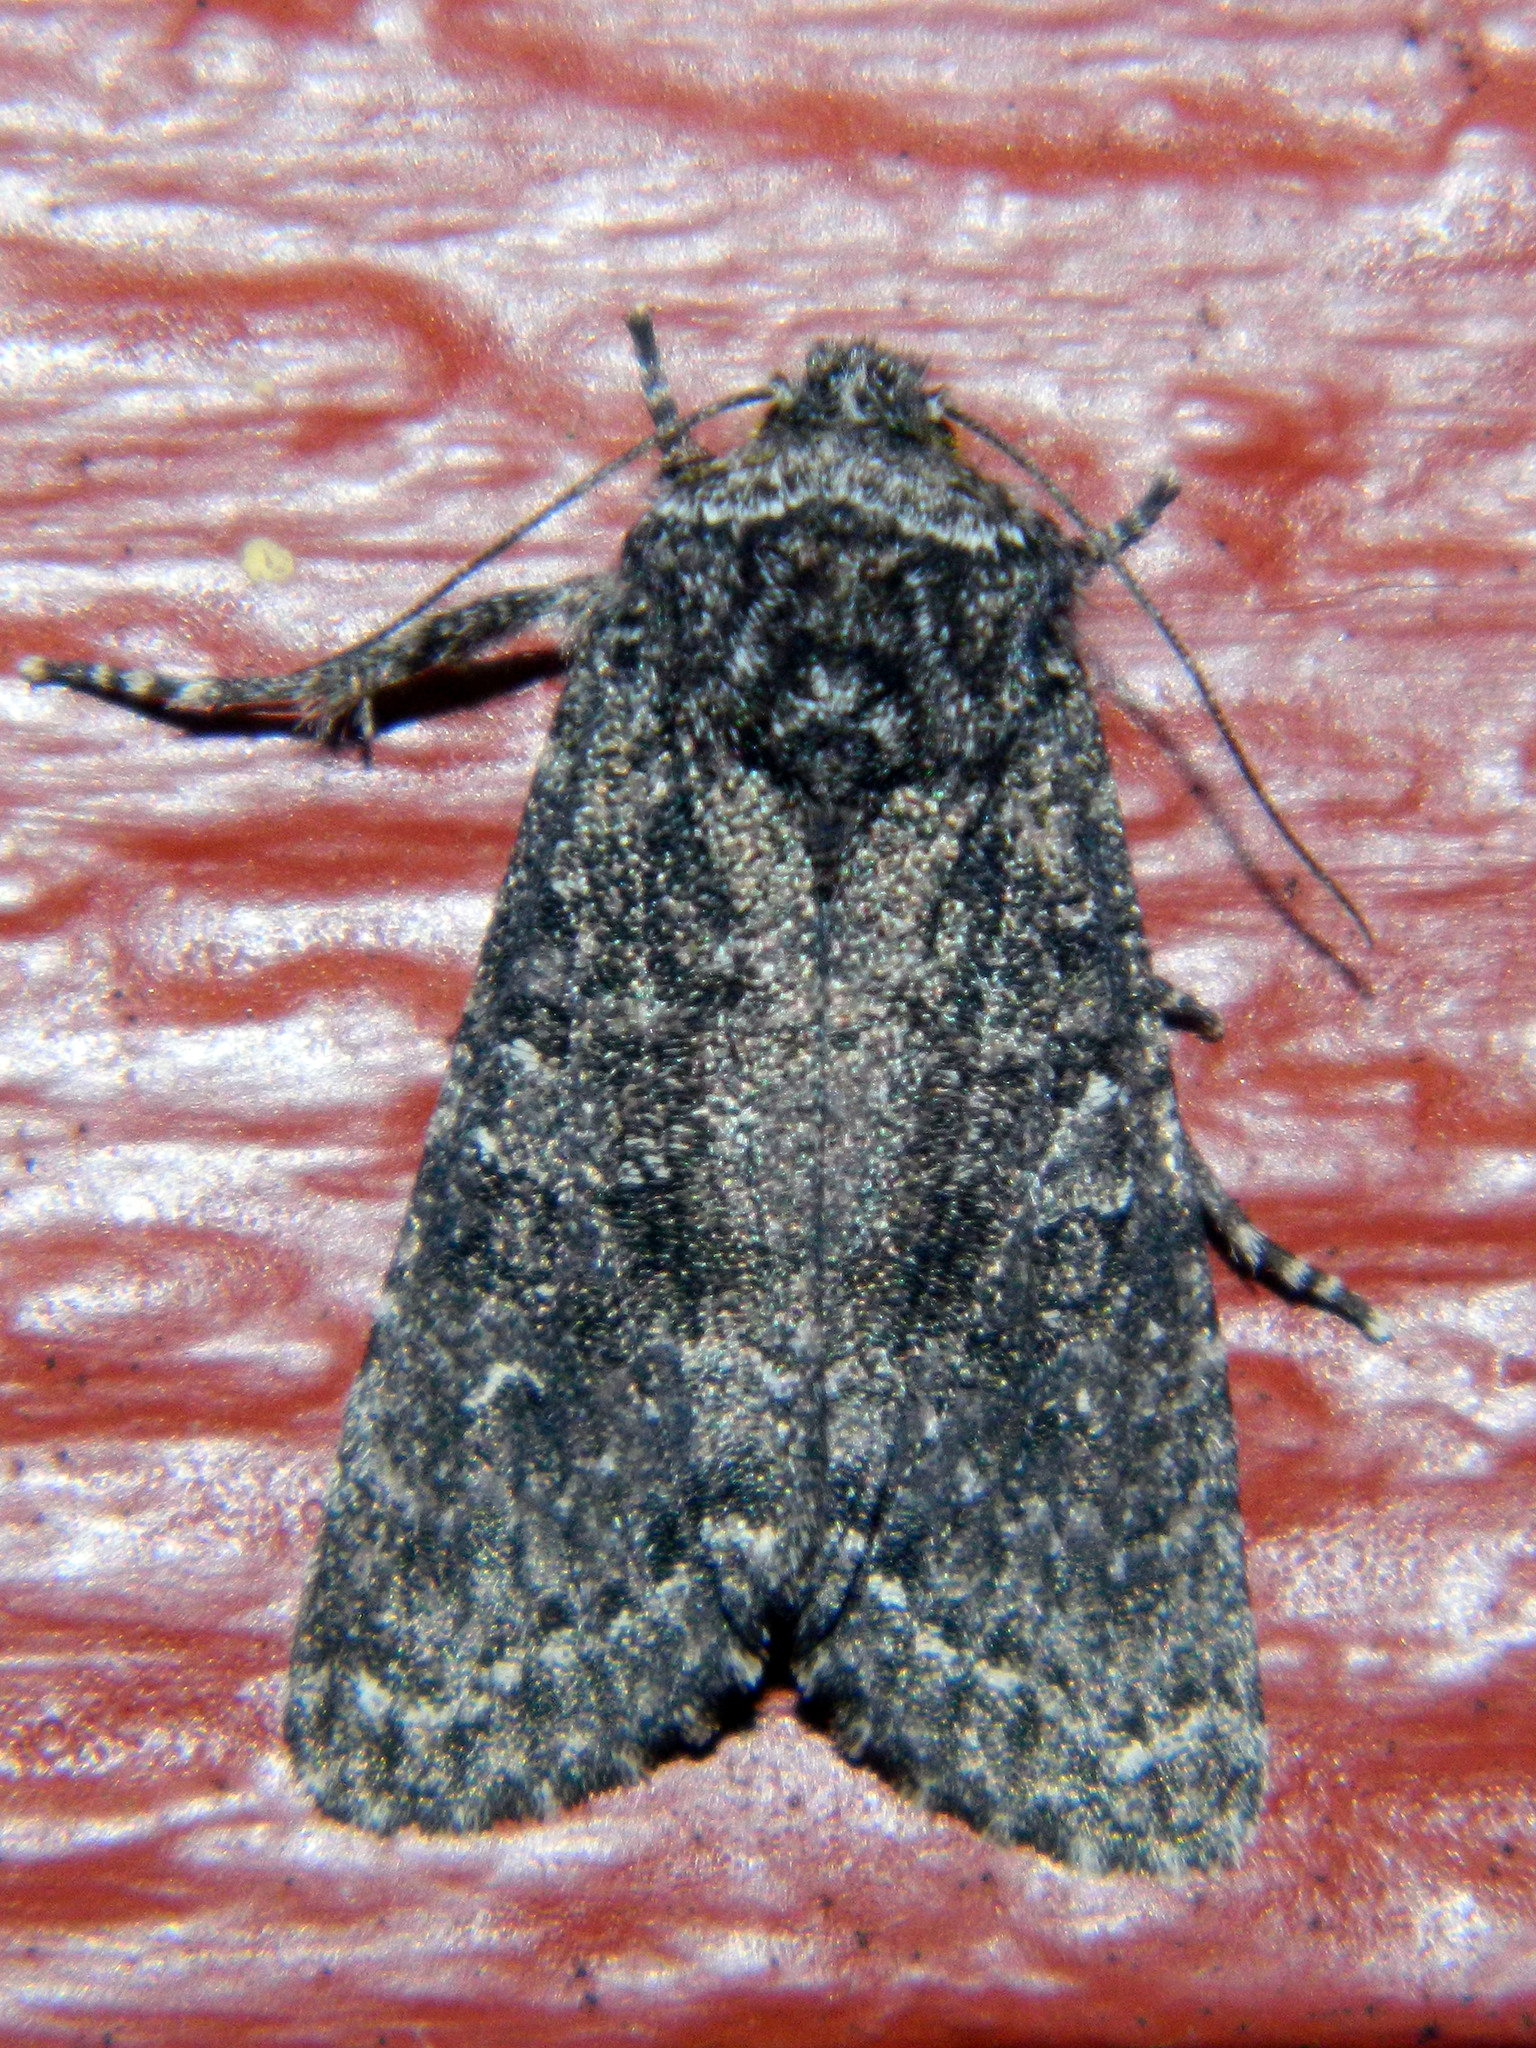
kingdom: Animalia
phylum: Arthropoda
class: Insecta
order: Lepidoptera
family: Noctuidae
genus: Egira
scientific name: Egira dolosa
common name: Lined black aspen cat.
